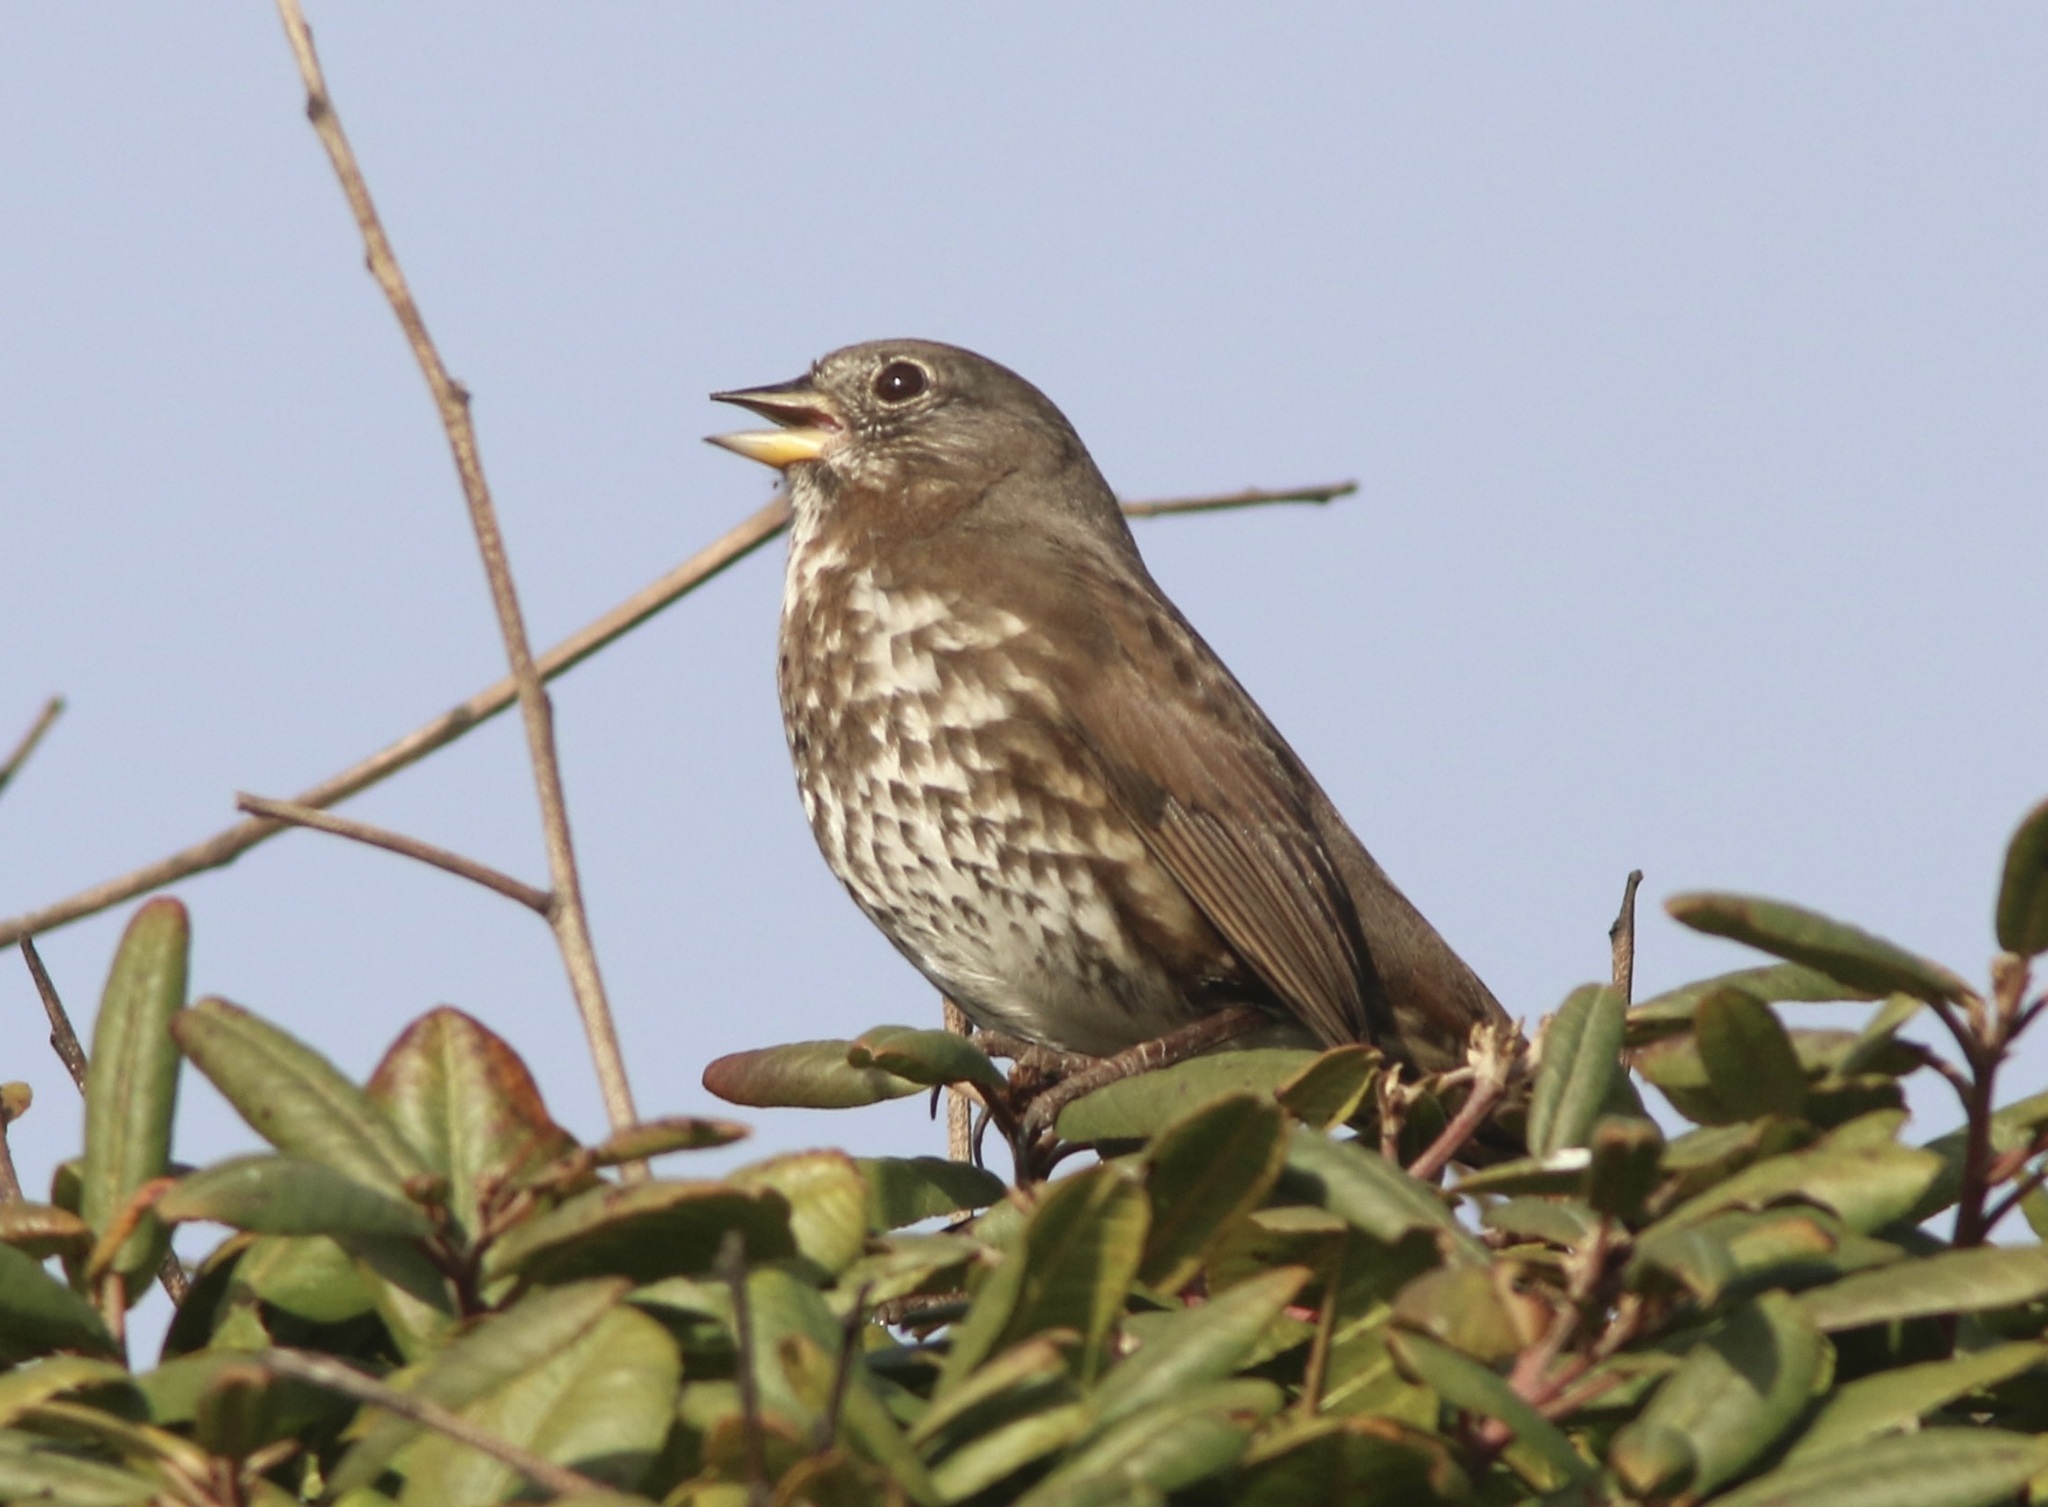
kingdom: Animalia
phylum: Chordata
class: Aves
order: Passeriformes
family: Passerellidae
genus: Passerella
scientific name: Passerella iliaca
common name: Fox sparrow
